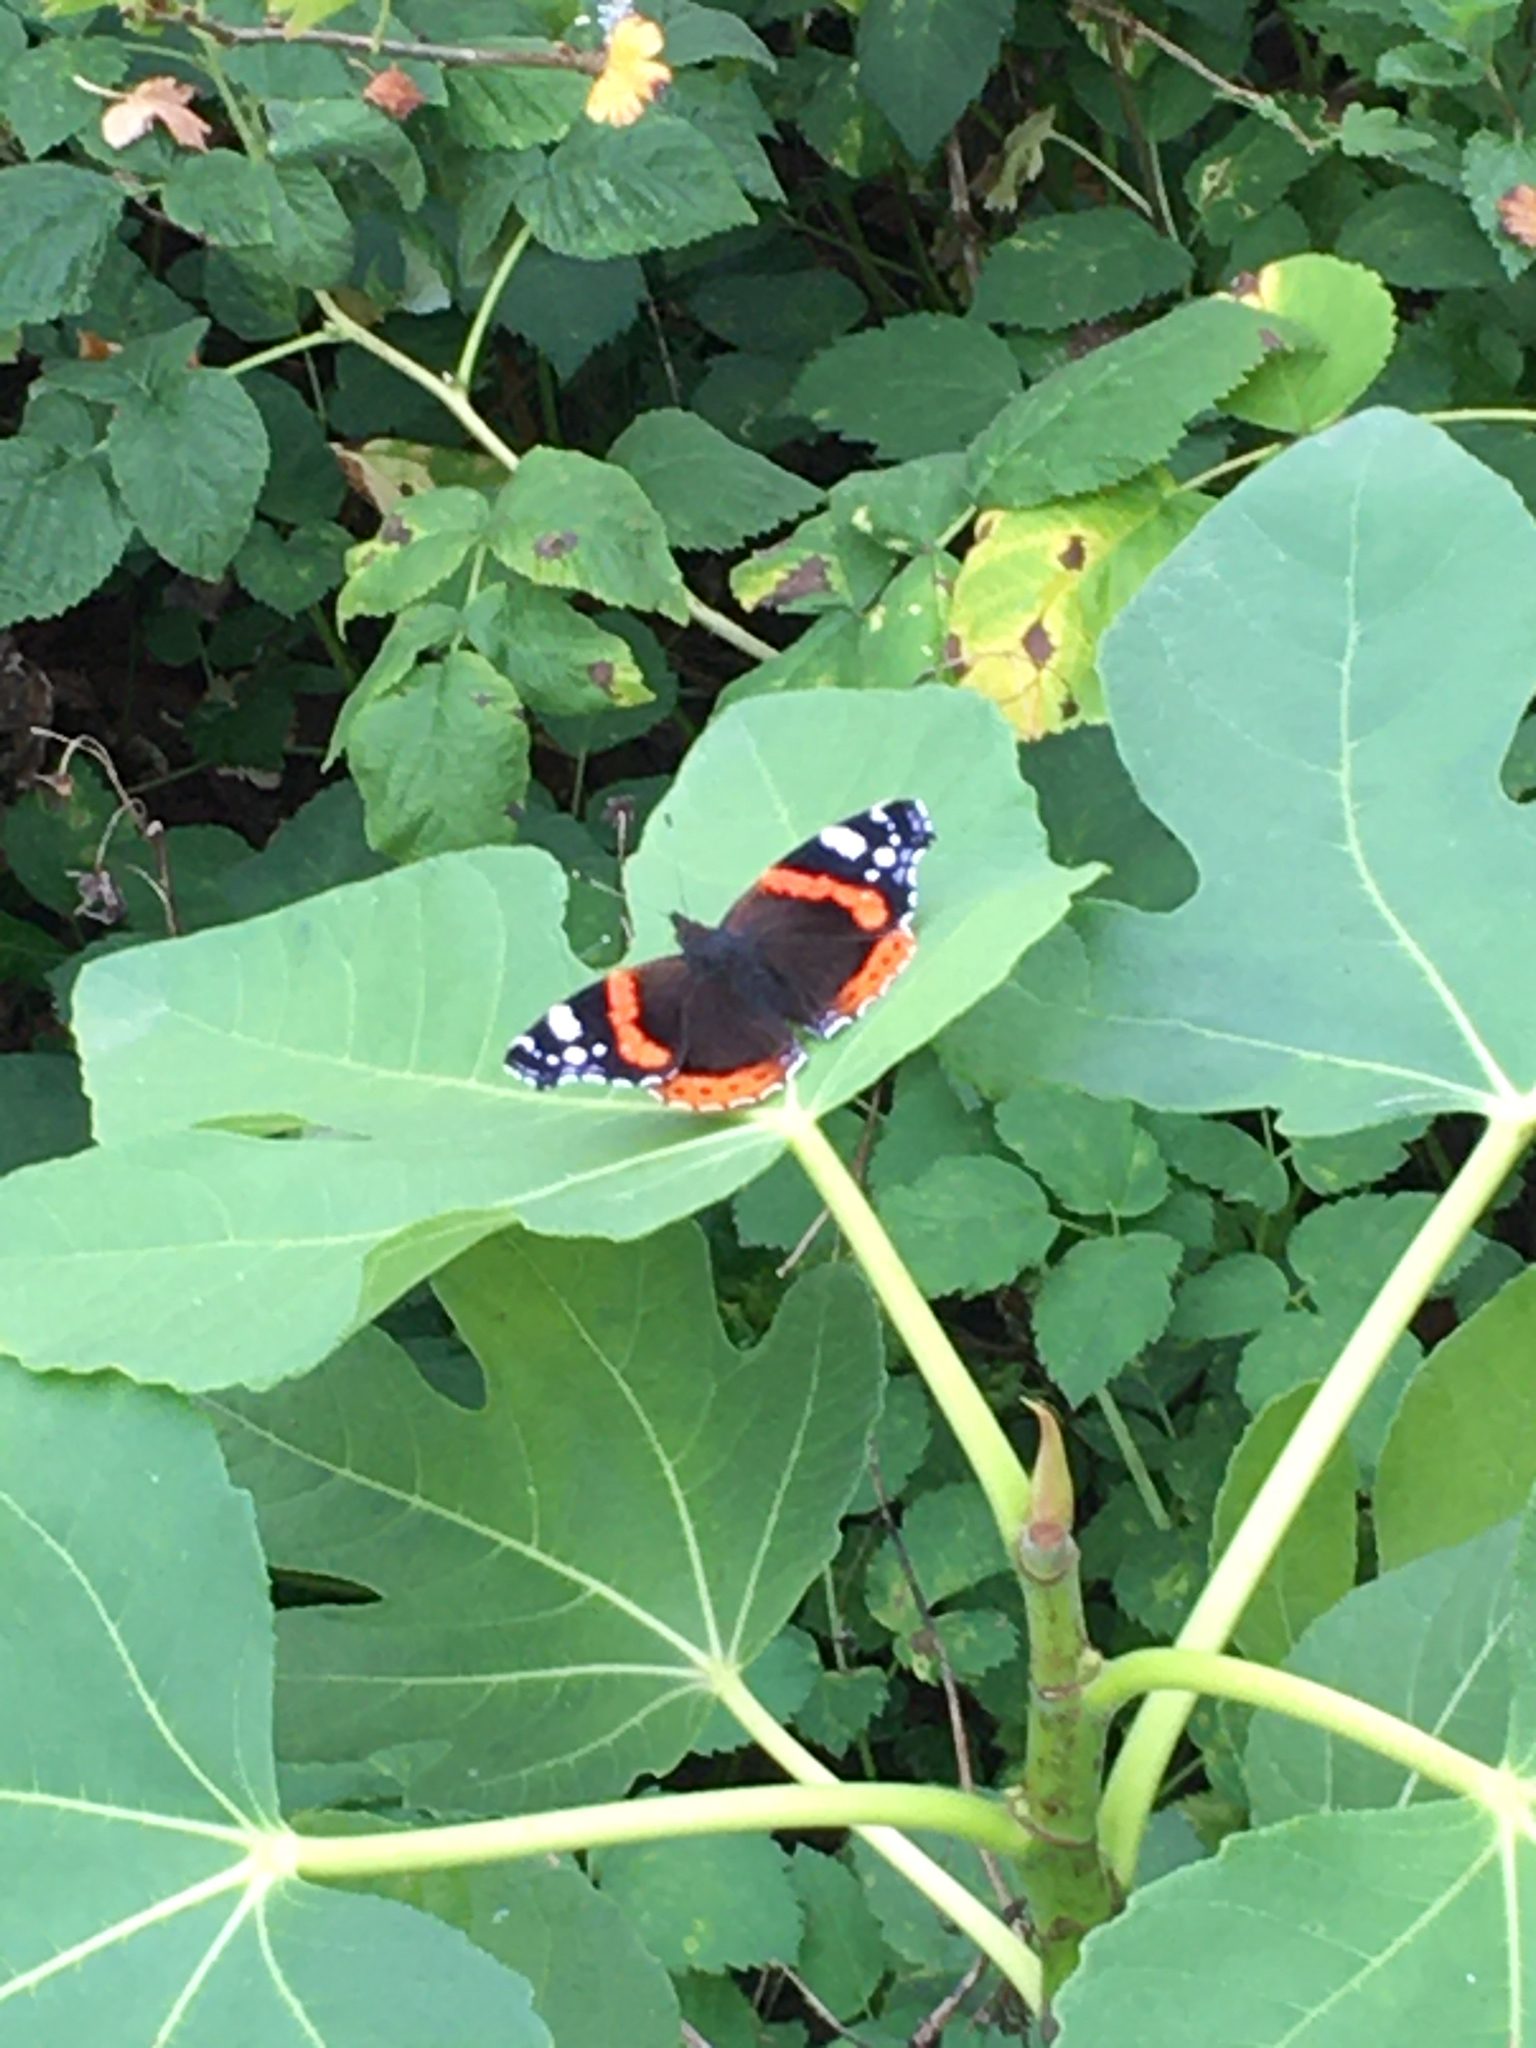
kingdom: Animalia
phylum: Arthropoda
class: Insecta
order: Lepidoptera
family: Nymphalidae
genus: Vanessa
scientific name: Vanessa atalanta
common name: Red admiral
